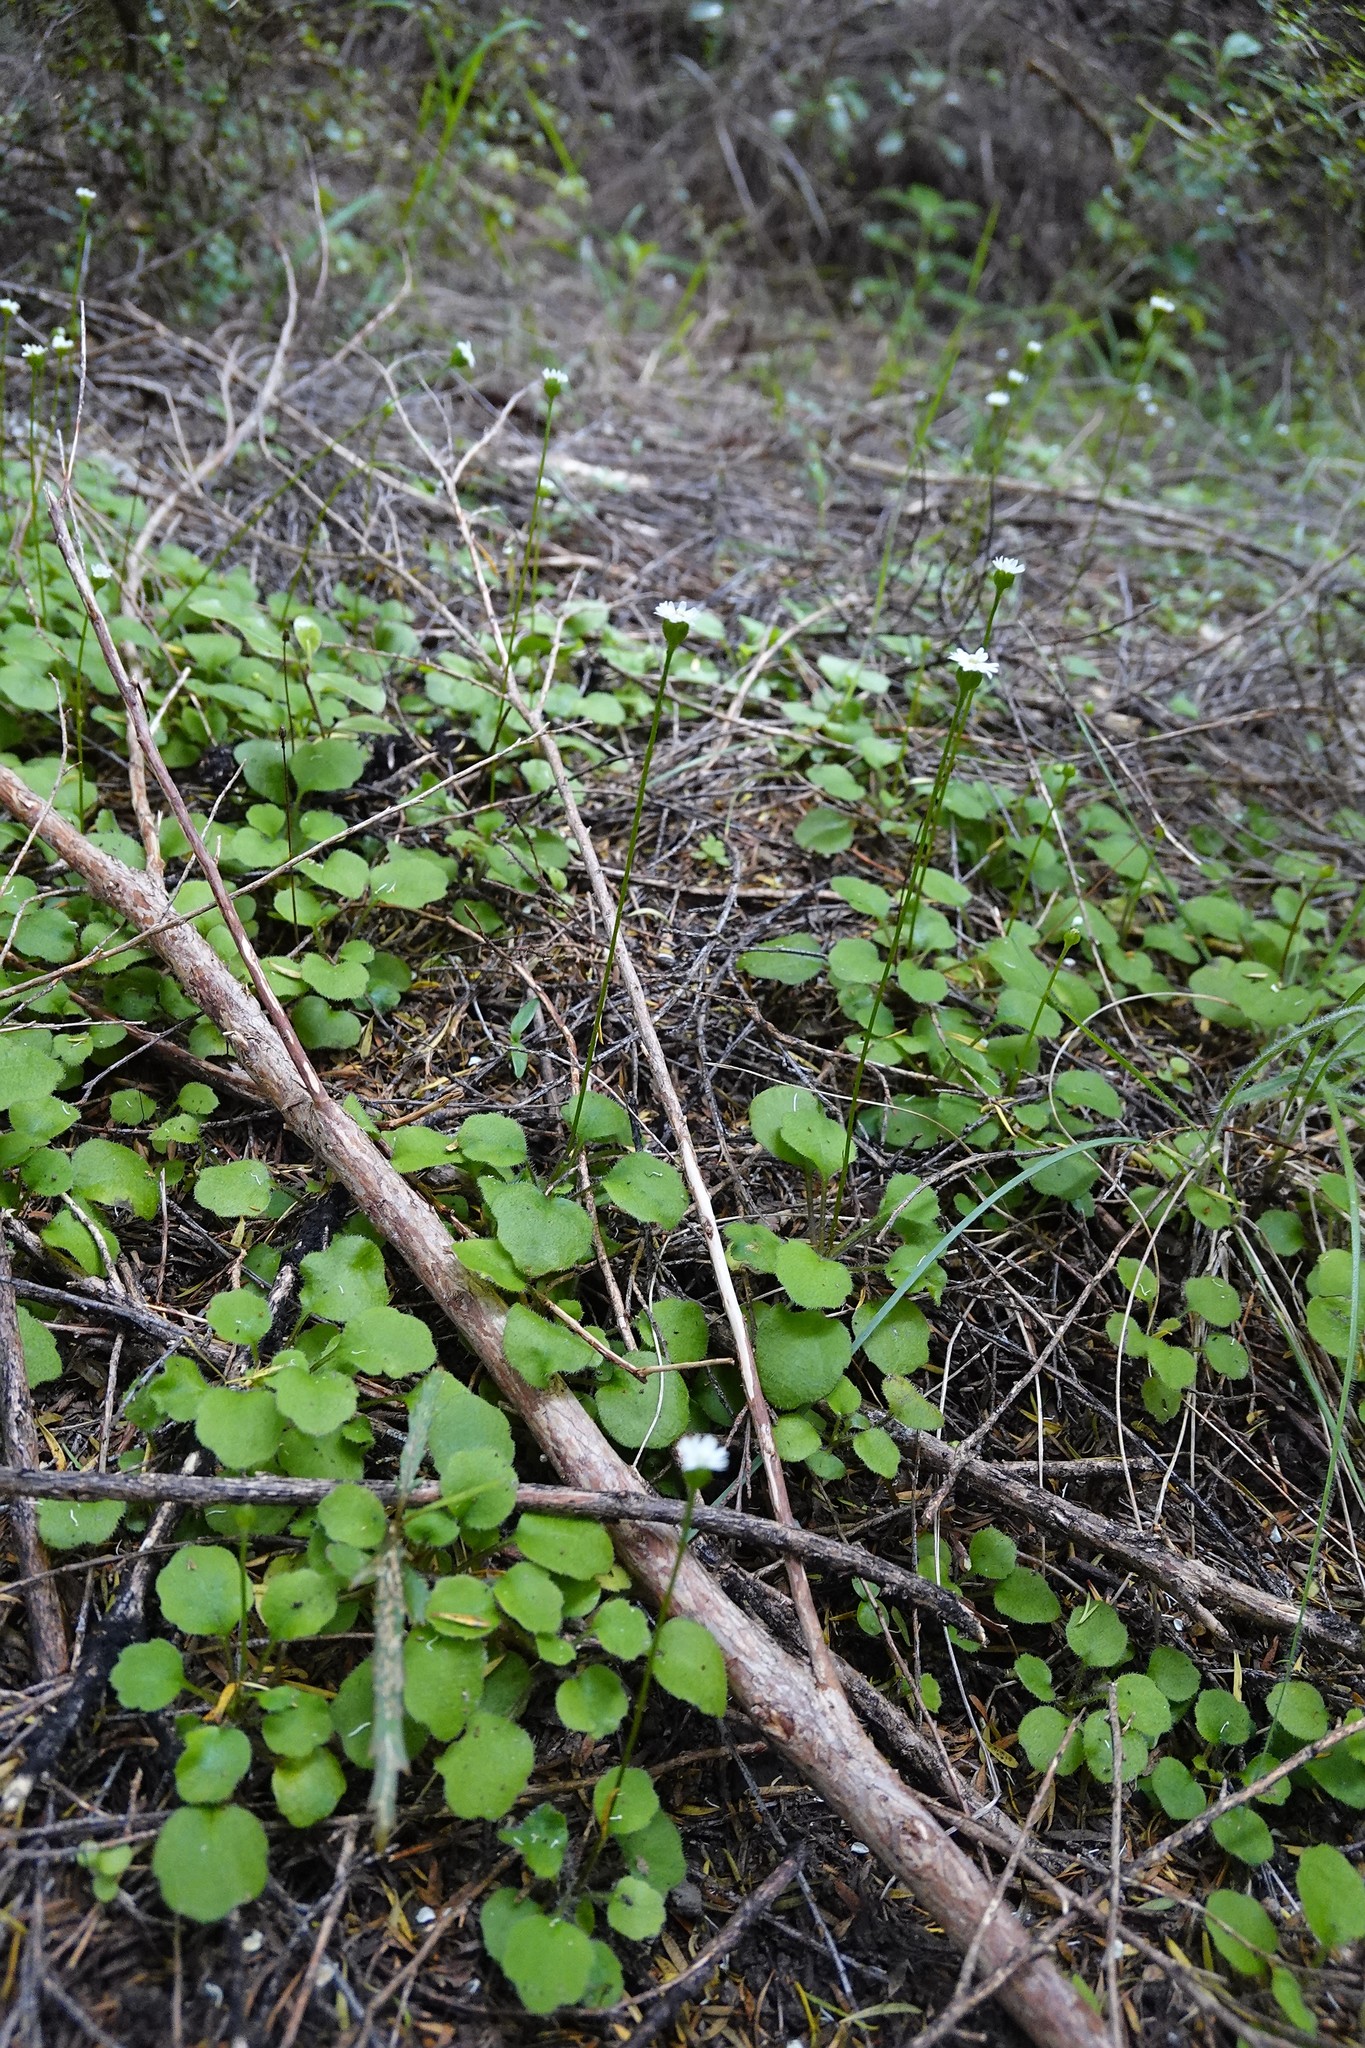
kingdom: Plantae
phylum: Tracheophyta
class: Magnoliopsida
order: Asterales
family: Asteraceae
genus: Lagenophora
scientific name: Lagenophora strangulata
